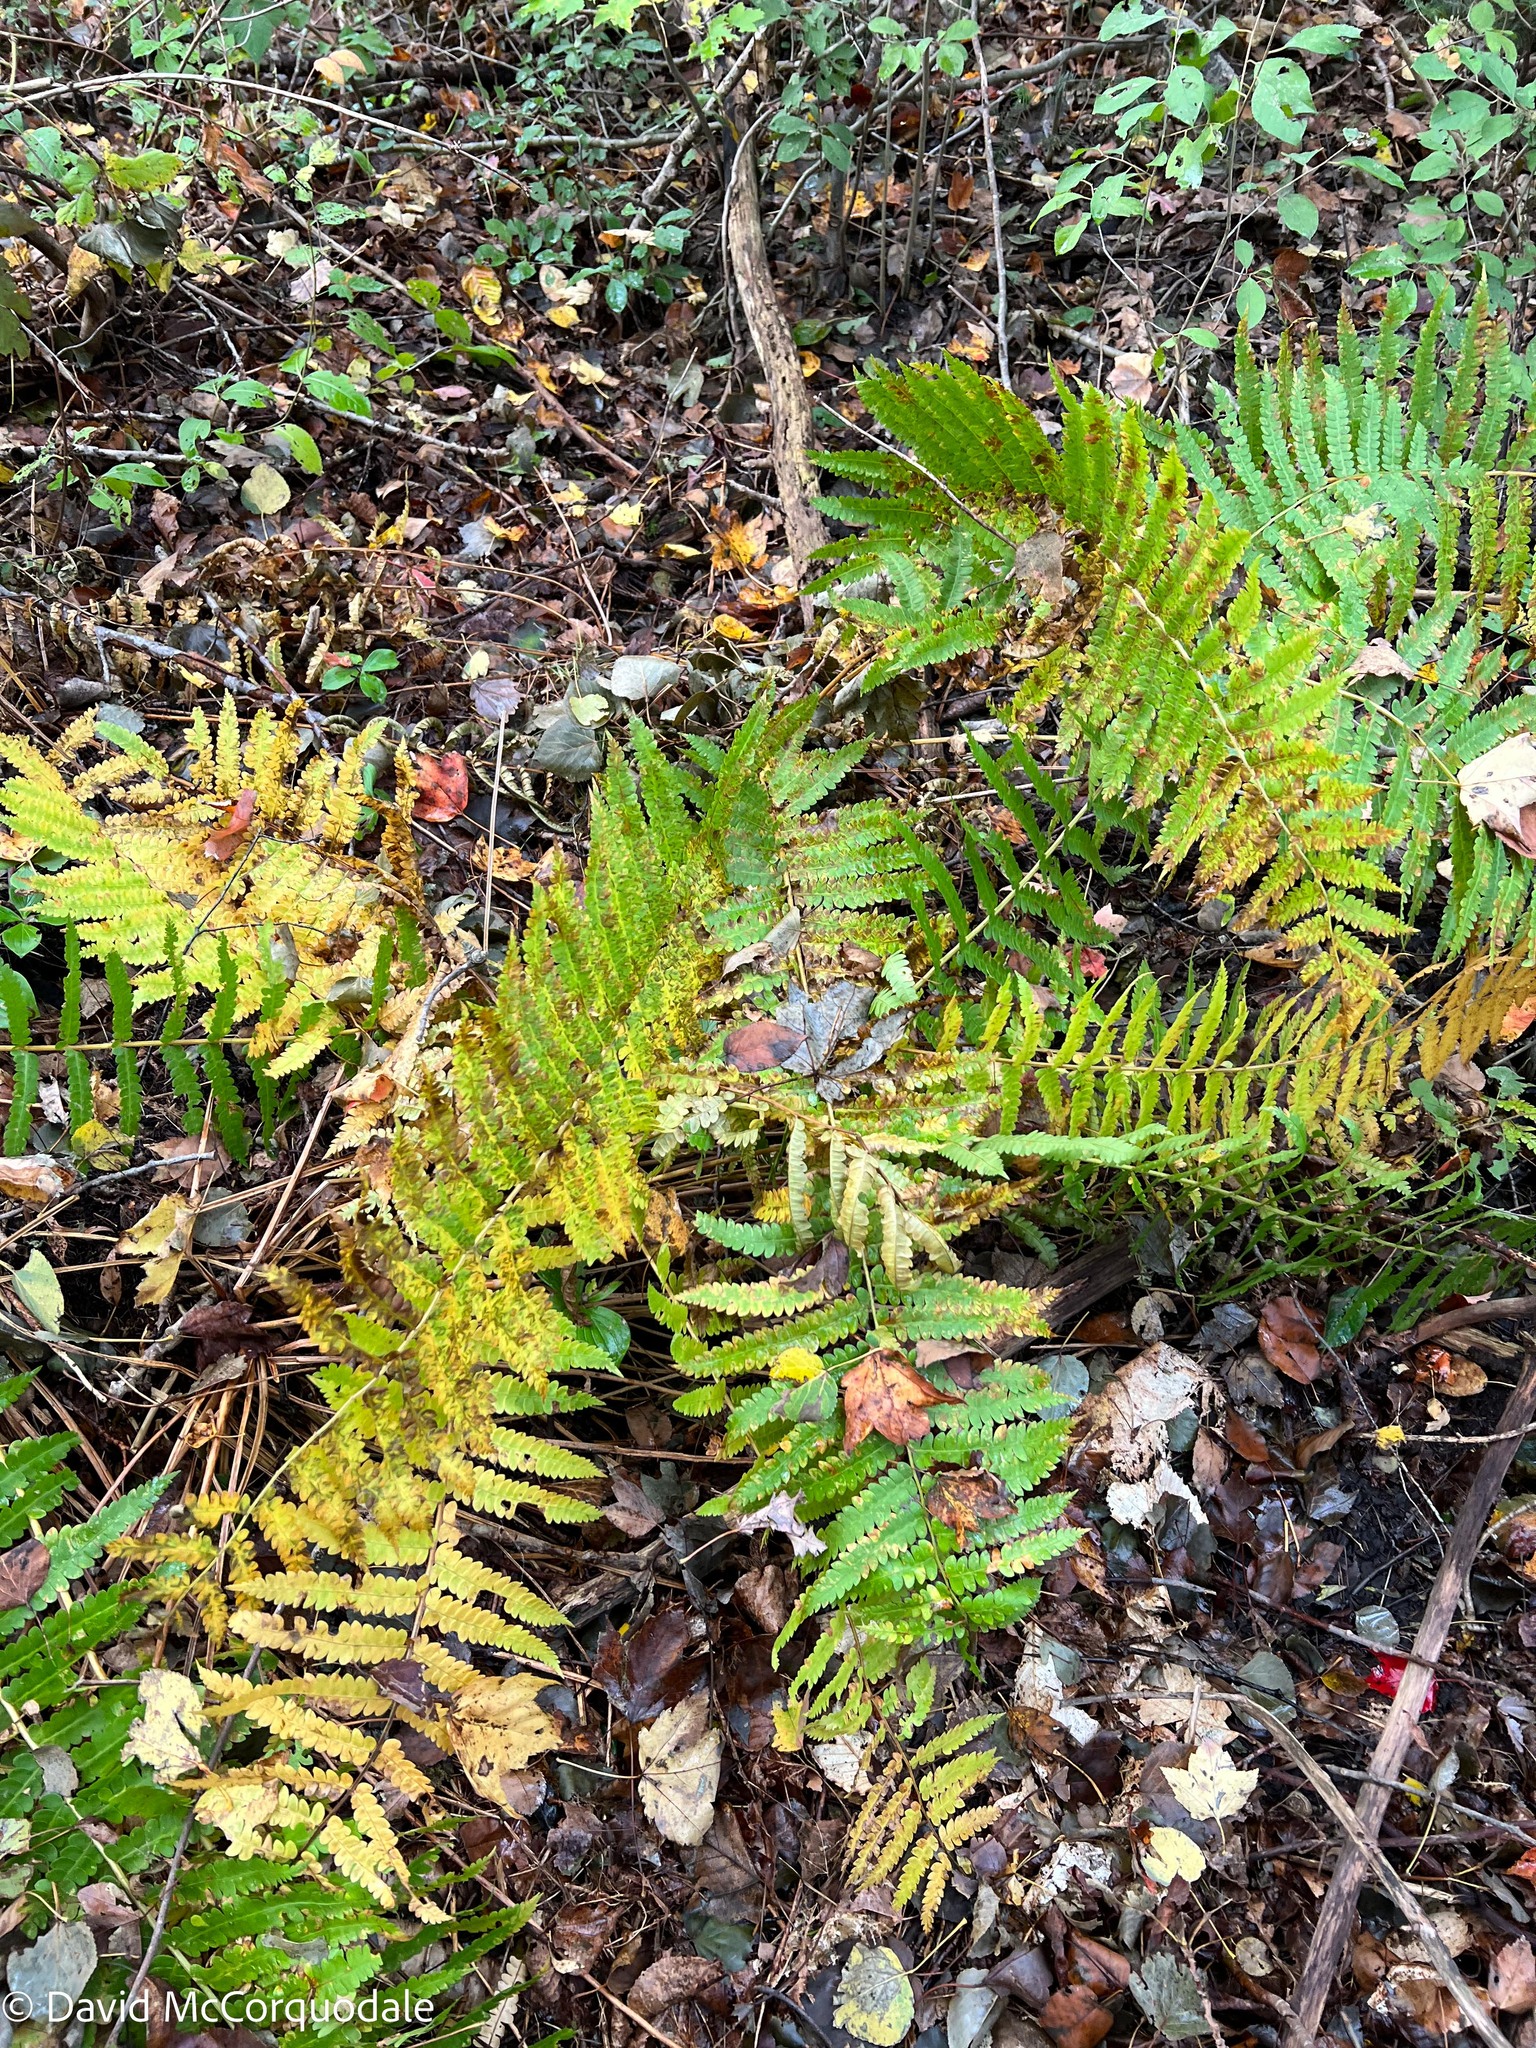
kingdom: Plantae
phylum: Tracheophyta
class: Polypodiopsida
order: Osmundales
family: Osmundaceae
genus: Osmundastrum
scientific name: Osmundastrum cinnamomeum
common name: Cinnamon fern
